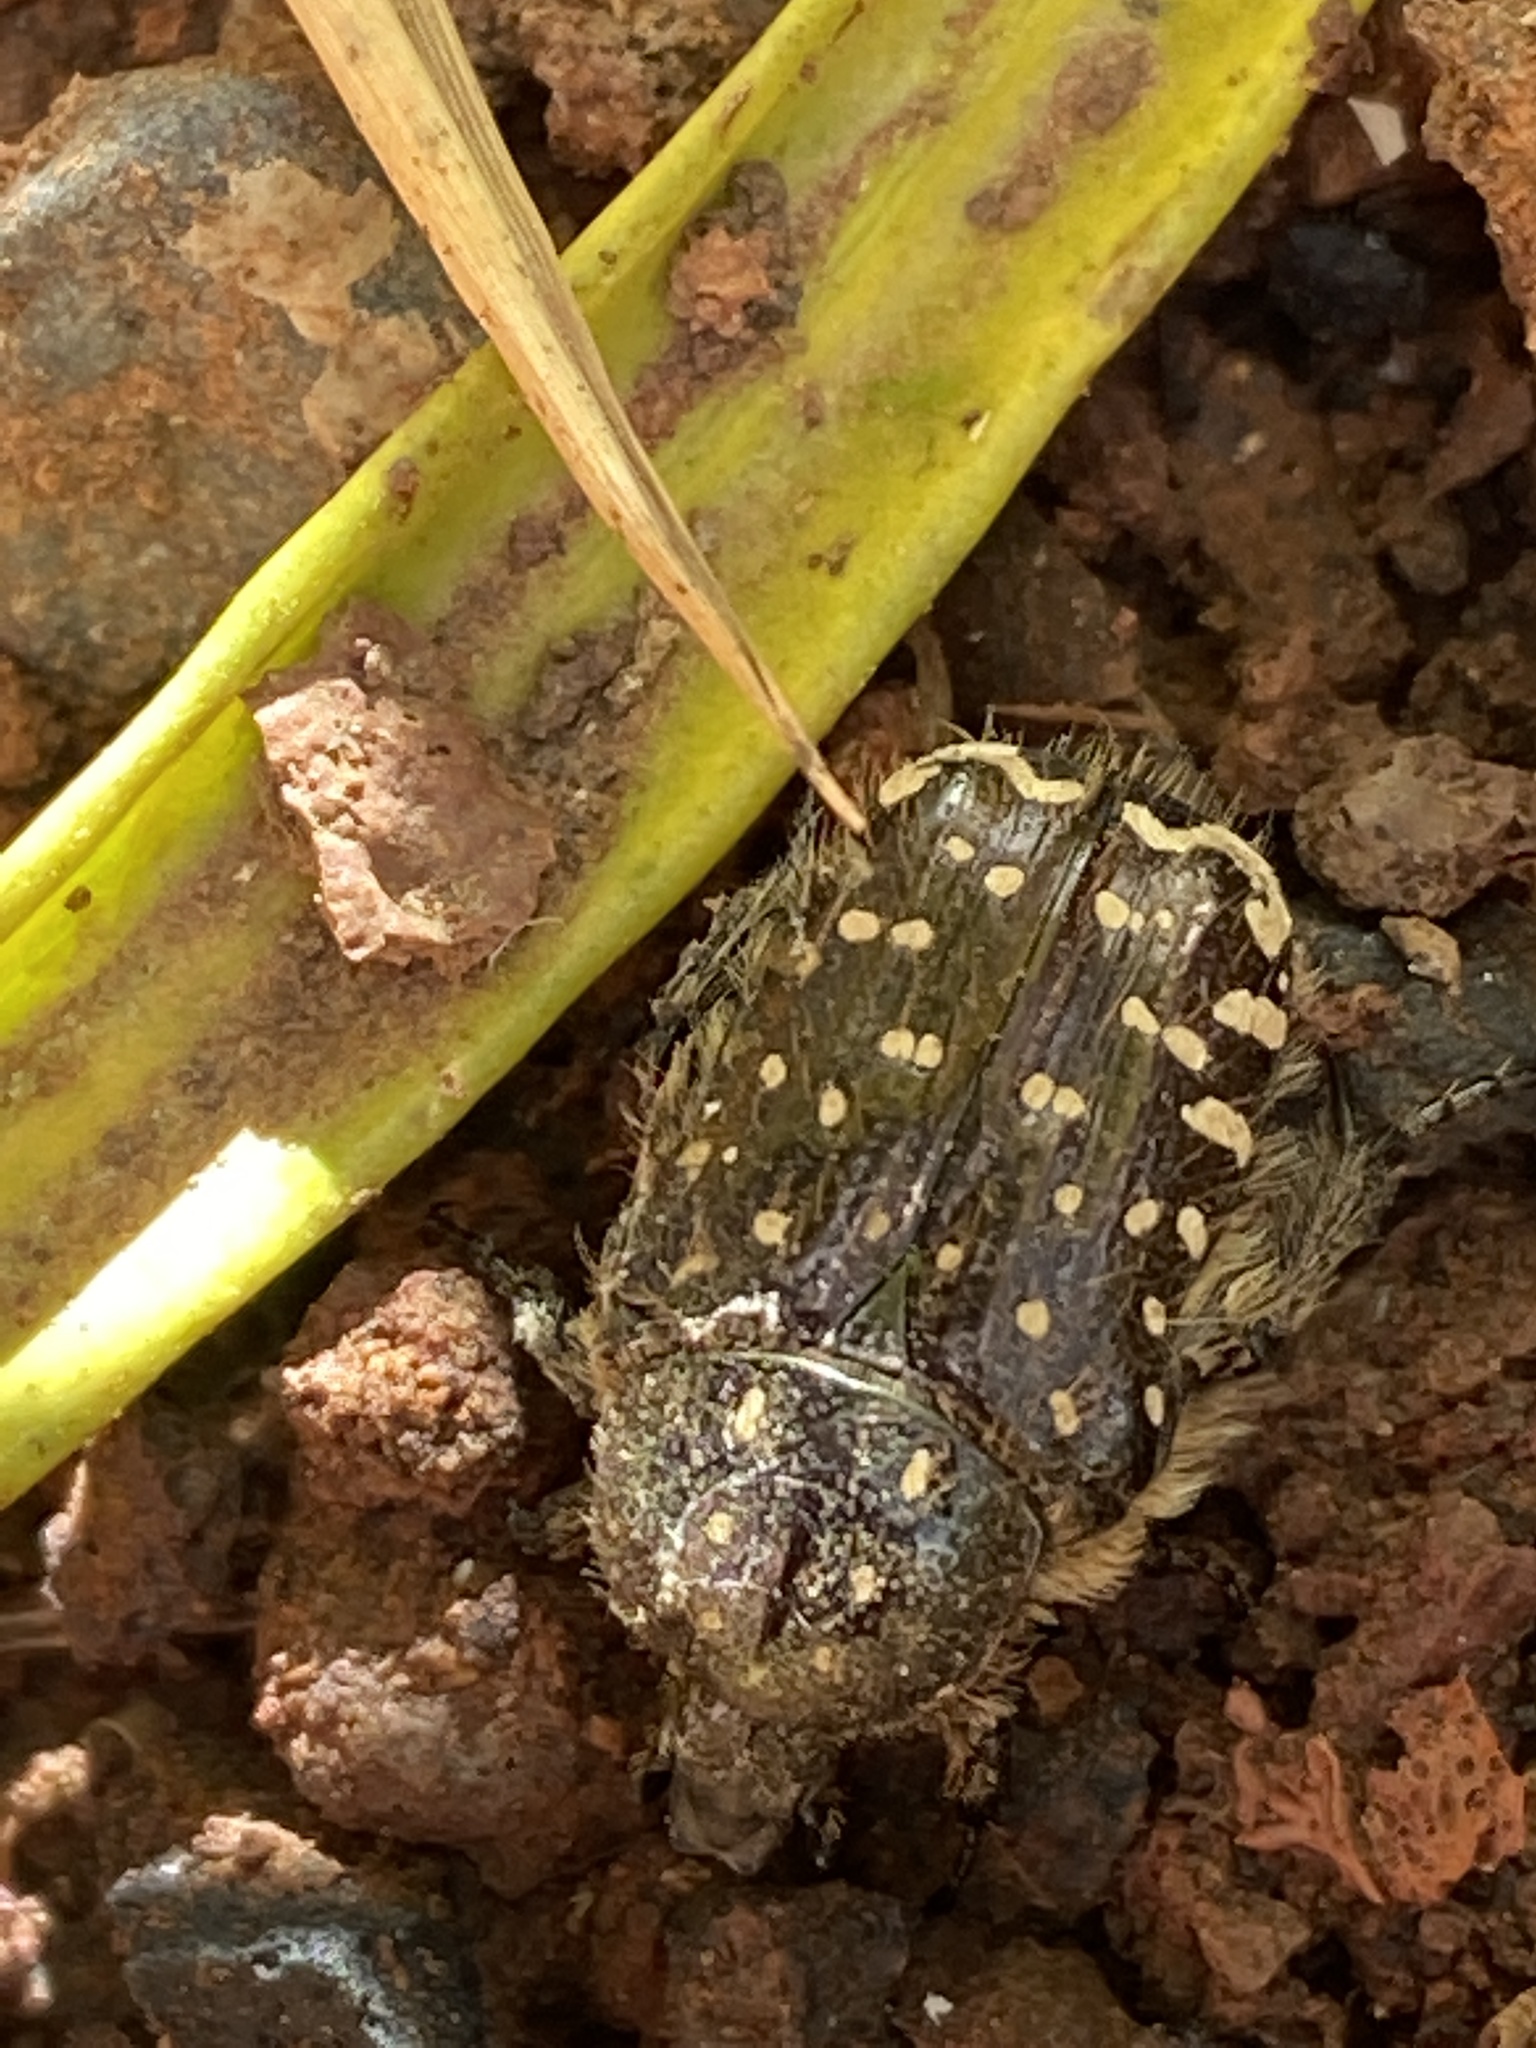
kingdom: Animalia
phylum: Arthropoda
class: Insecta
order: Coleoptera
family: Scarabaeidae
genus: Oxythyrea
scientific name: Oxythyrea funesta
